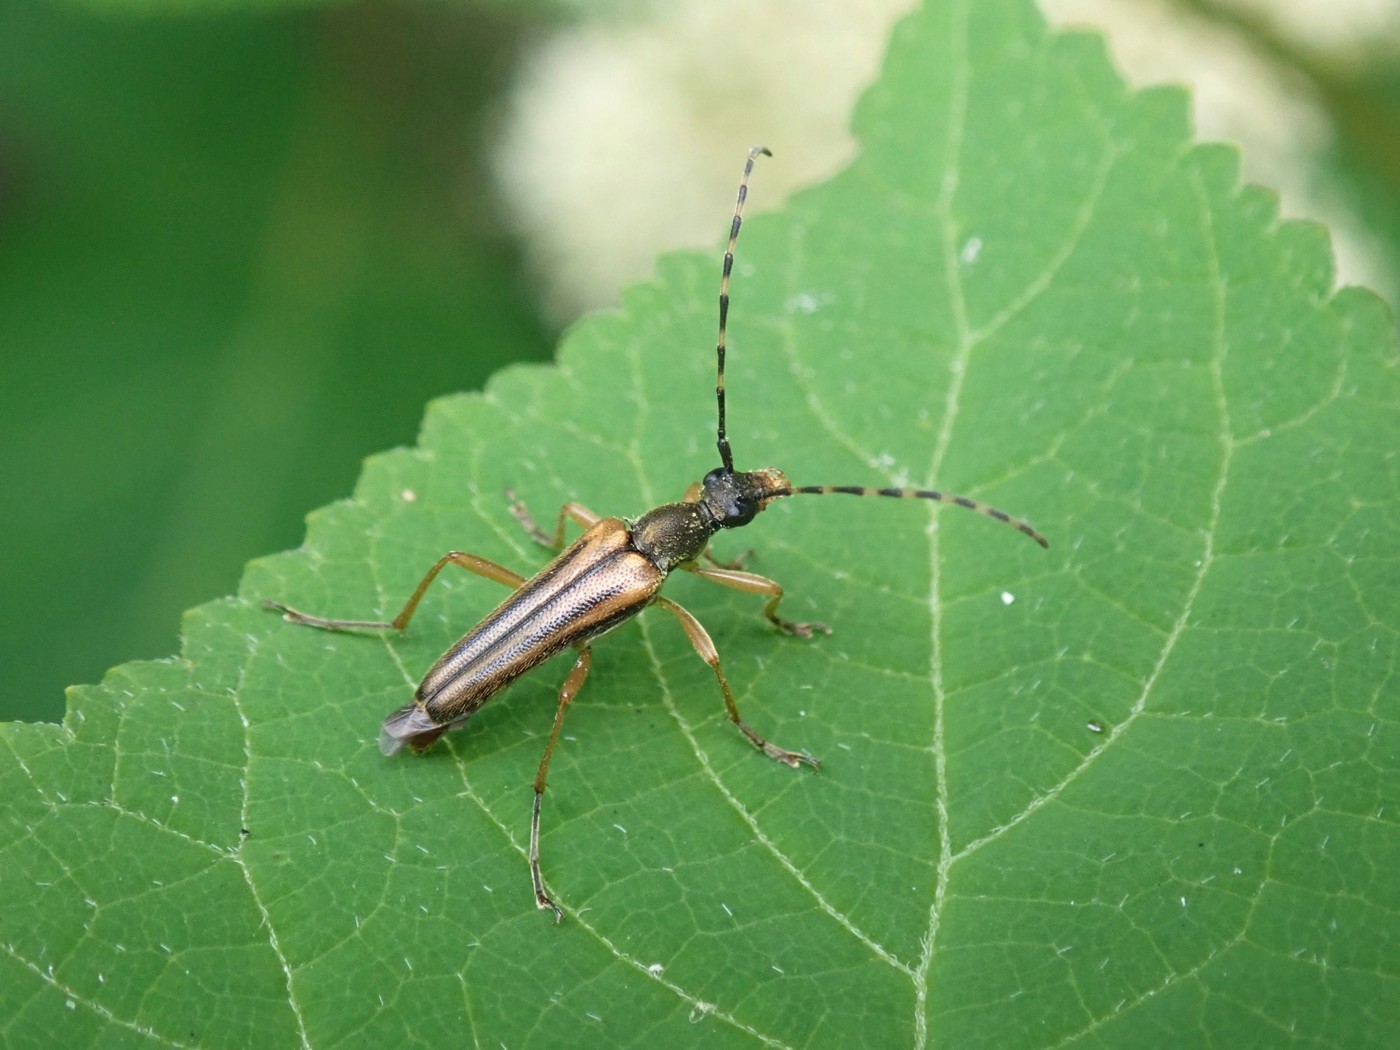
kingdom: Animalia
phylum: Arthropoda
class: Insecta
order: Coleoptera
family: Cerambycidae
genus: Analeptura
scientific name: Analeptura lineola
